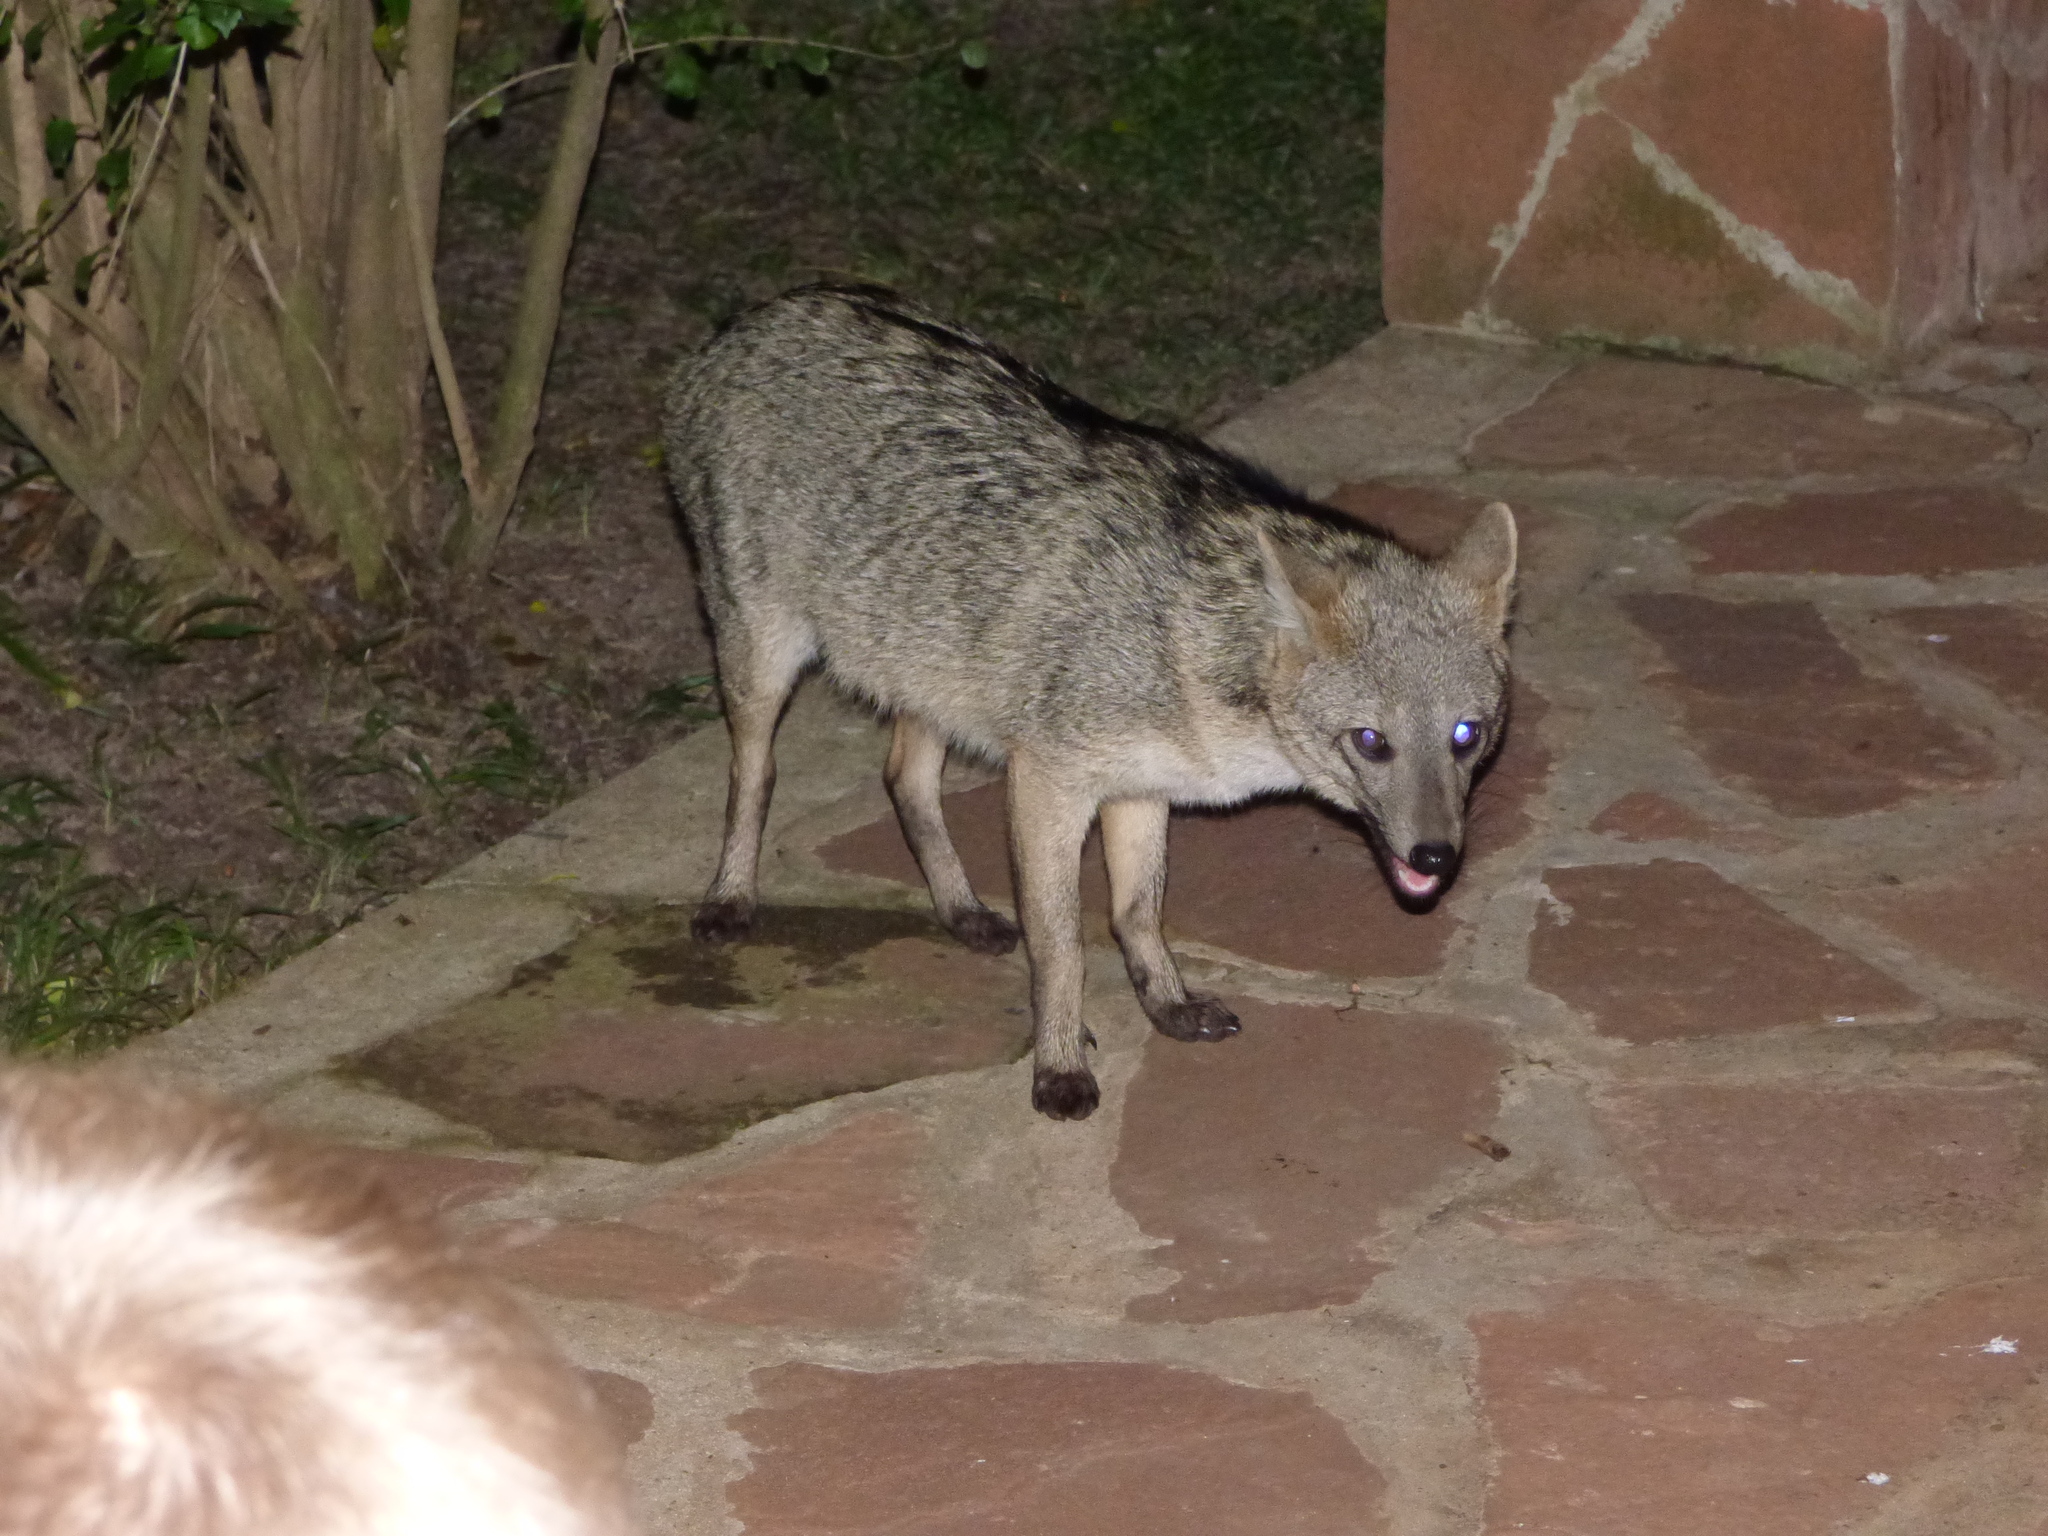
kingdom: Animalia
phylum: Chordata
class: Mammalia
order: Carnivora
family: Canidae
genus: Cerdocyon
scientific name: Cerdocyon thous
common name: Crab-eating fox
